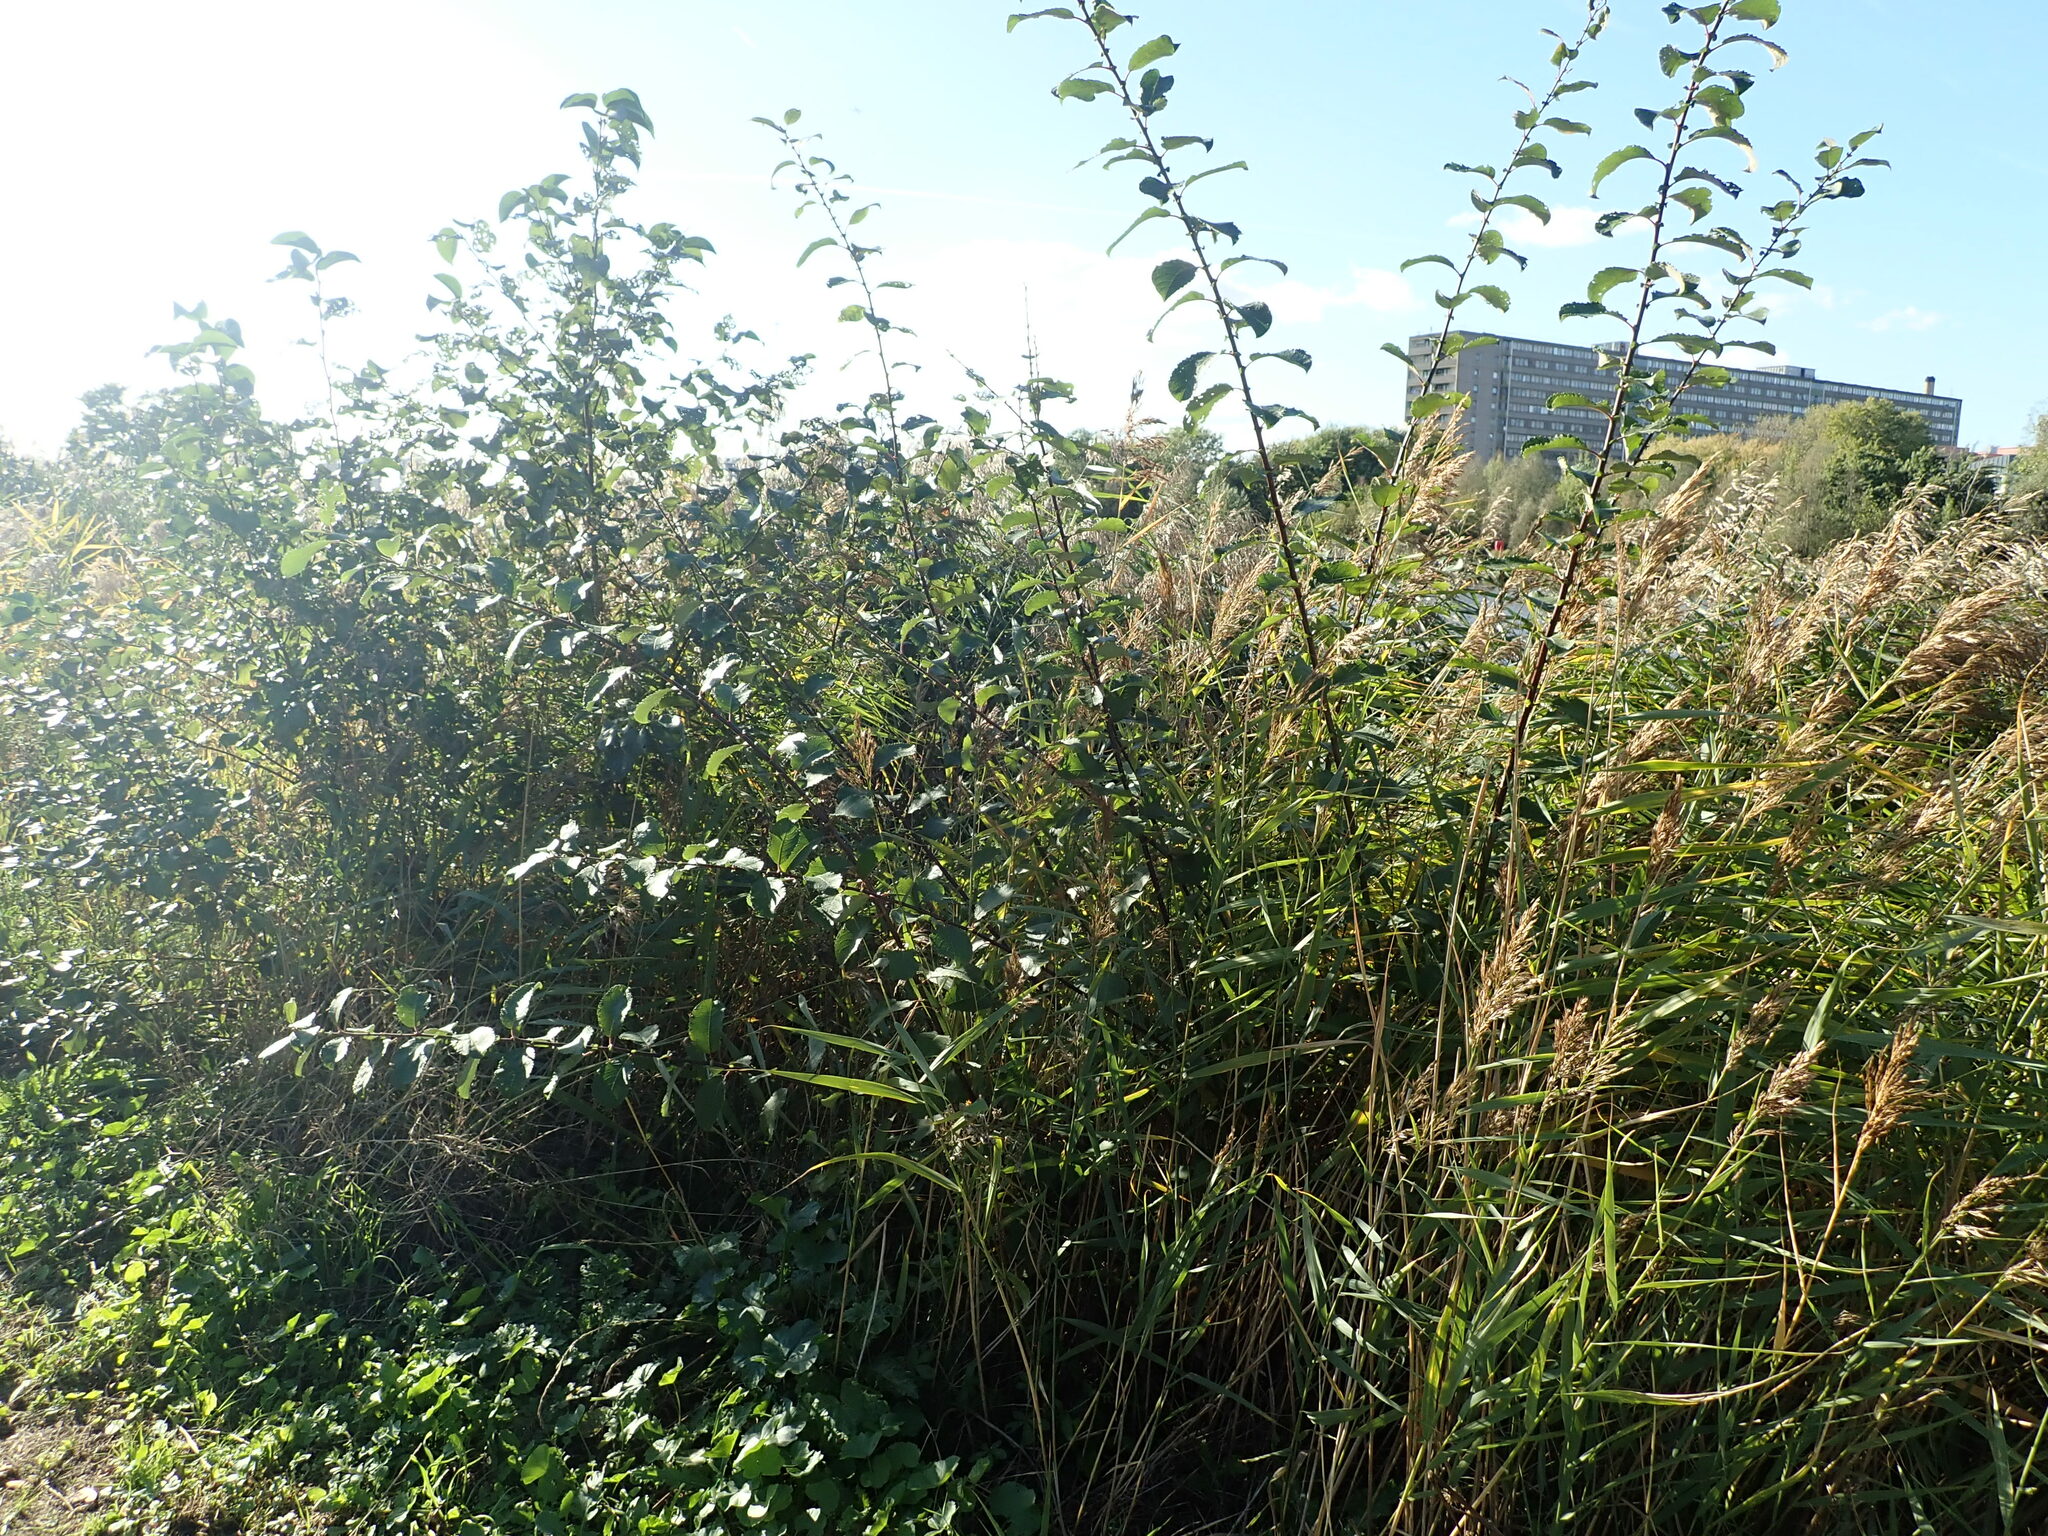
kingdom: Plantae
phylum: Tracheophyta
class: Magnoliopsida
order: Malpighiales
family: Salicaceae
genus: Salix
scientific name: Salix caprea
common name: Goat willow
